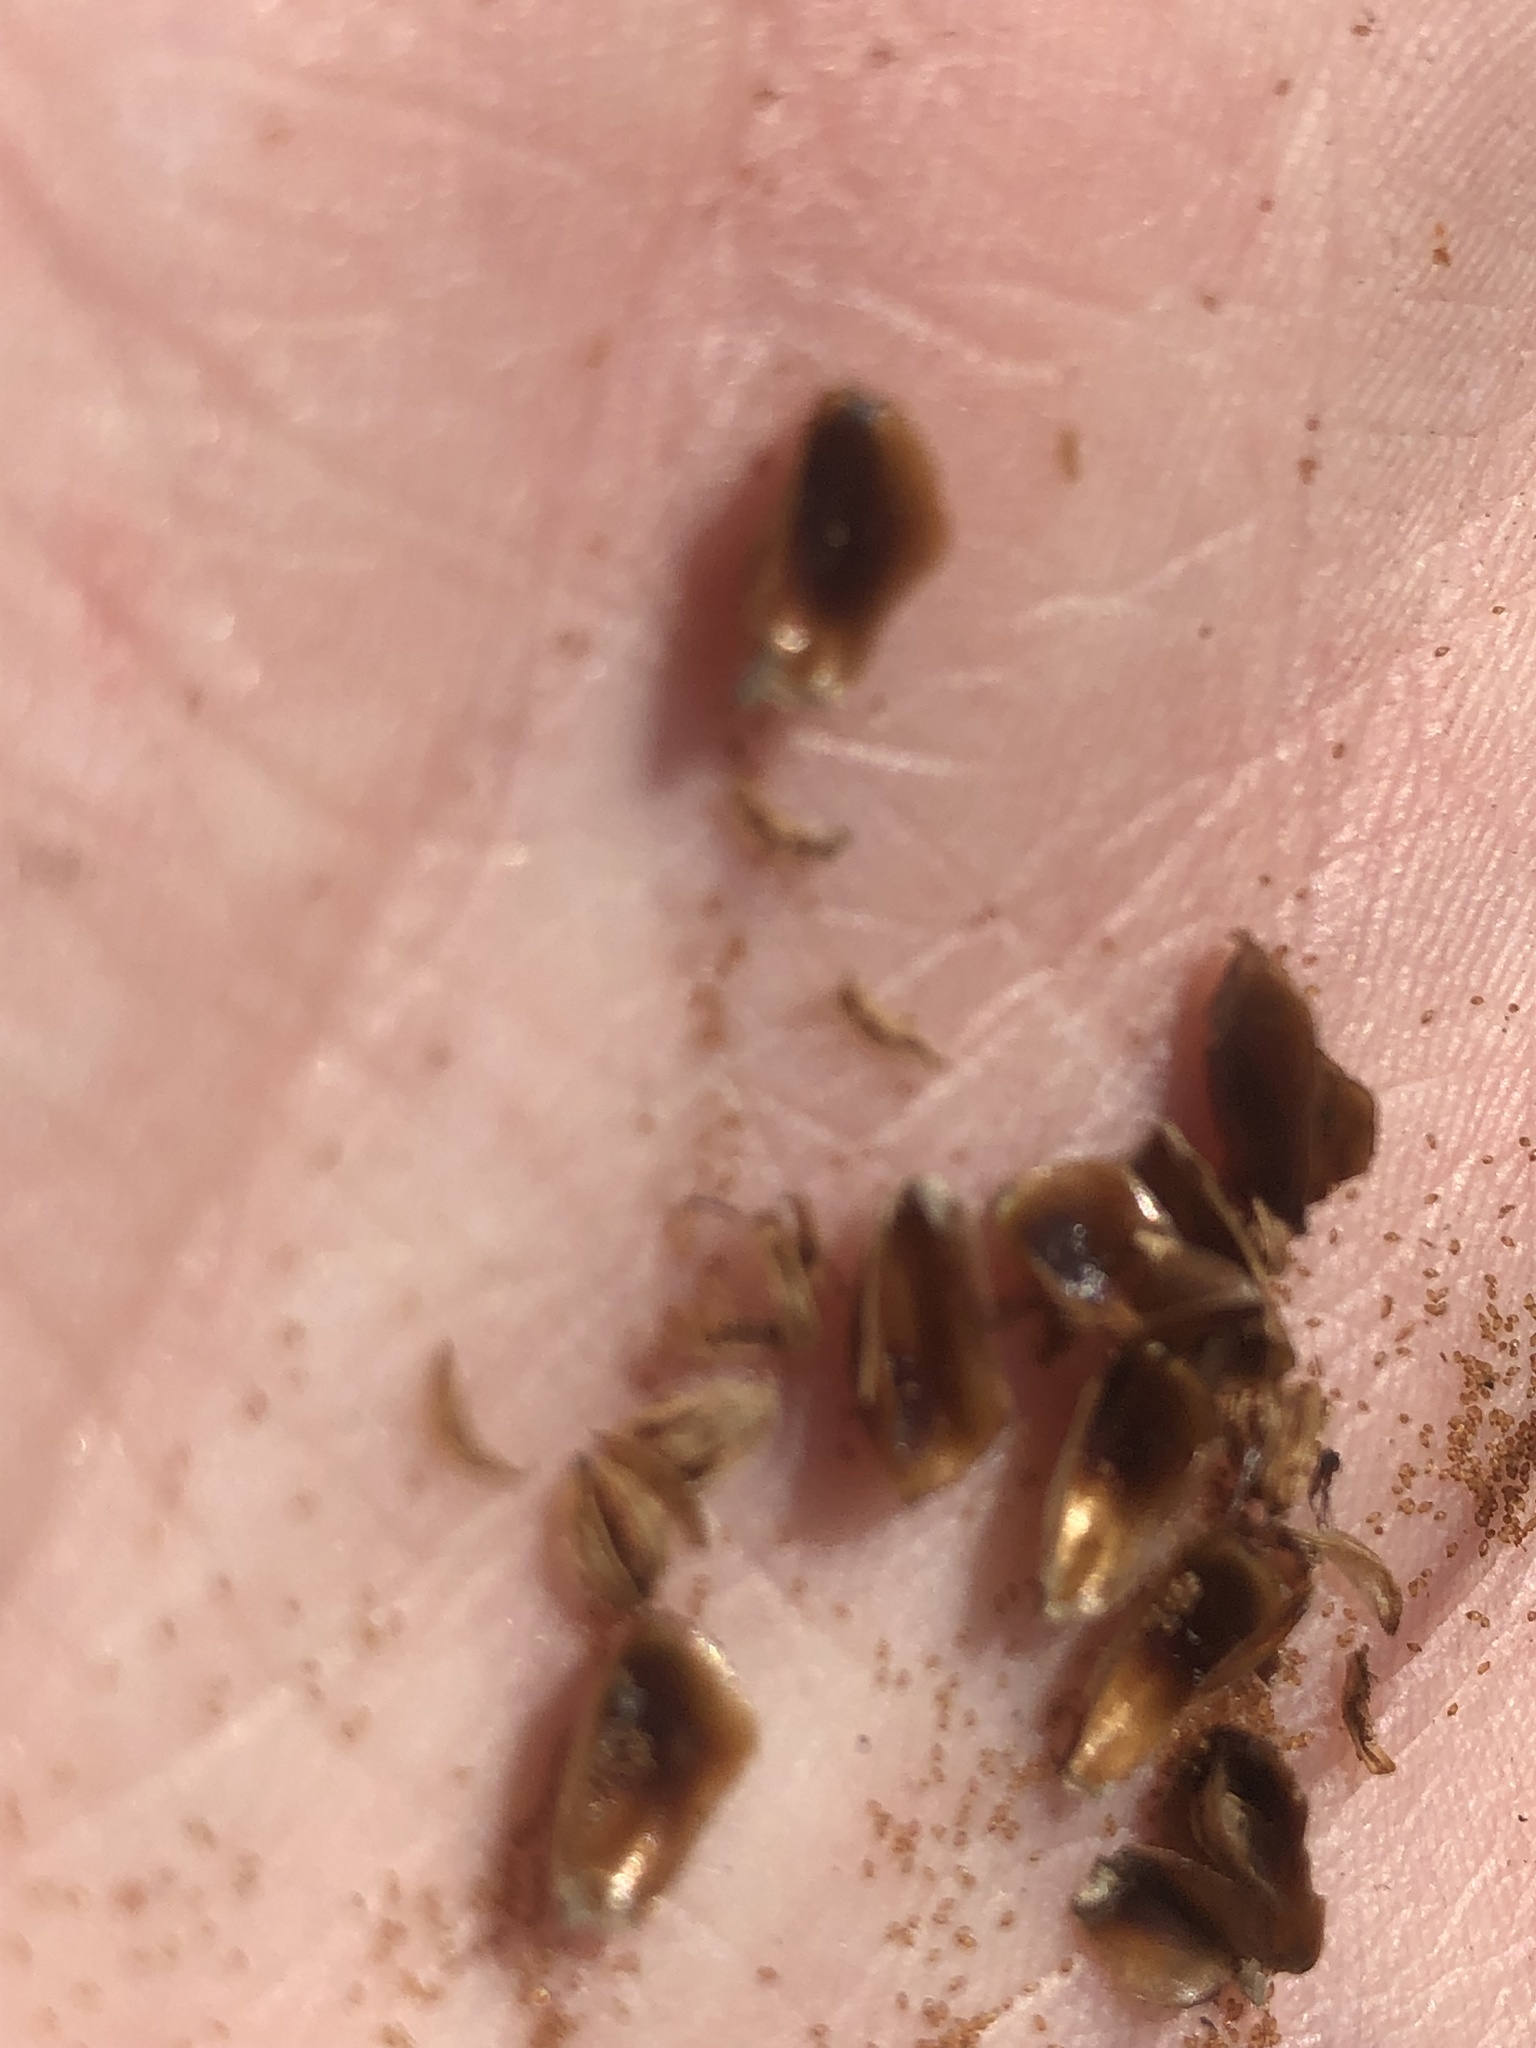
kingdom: Plantae
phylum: Tracheophyta
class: Liliopsida
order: Poales
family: Xyridaceae
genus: Xyris
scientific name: Xyris jupicai
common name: Richard's yelloweyed grass
